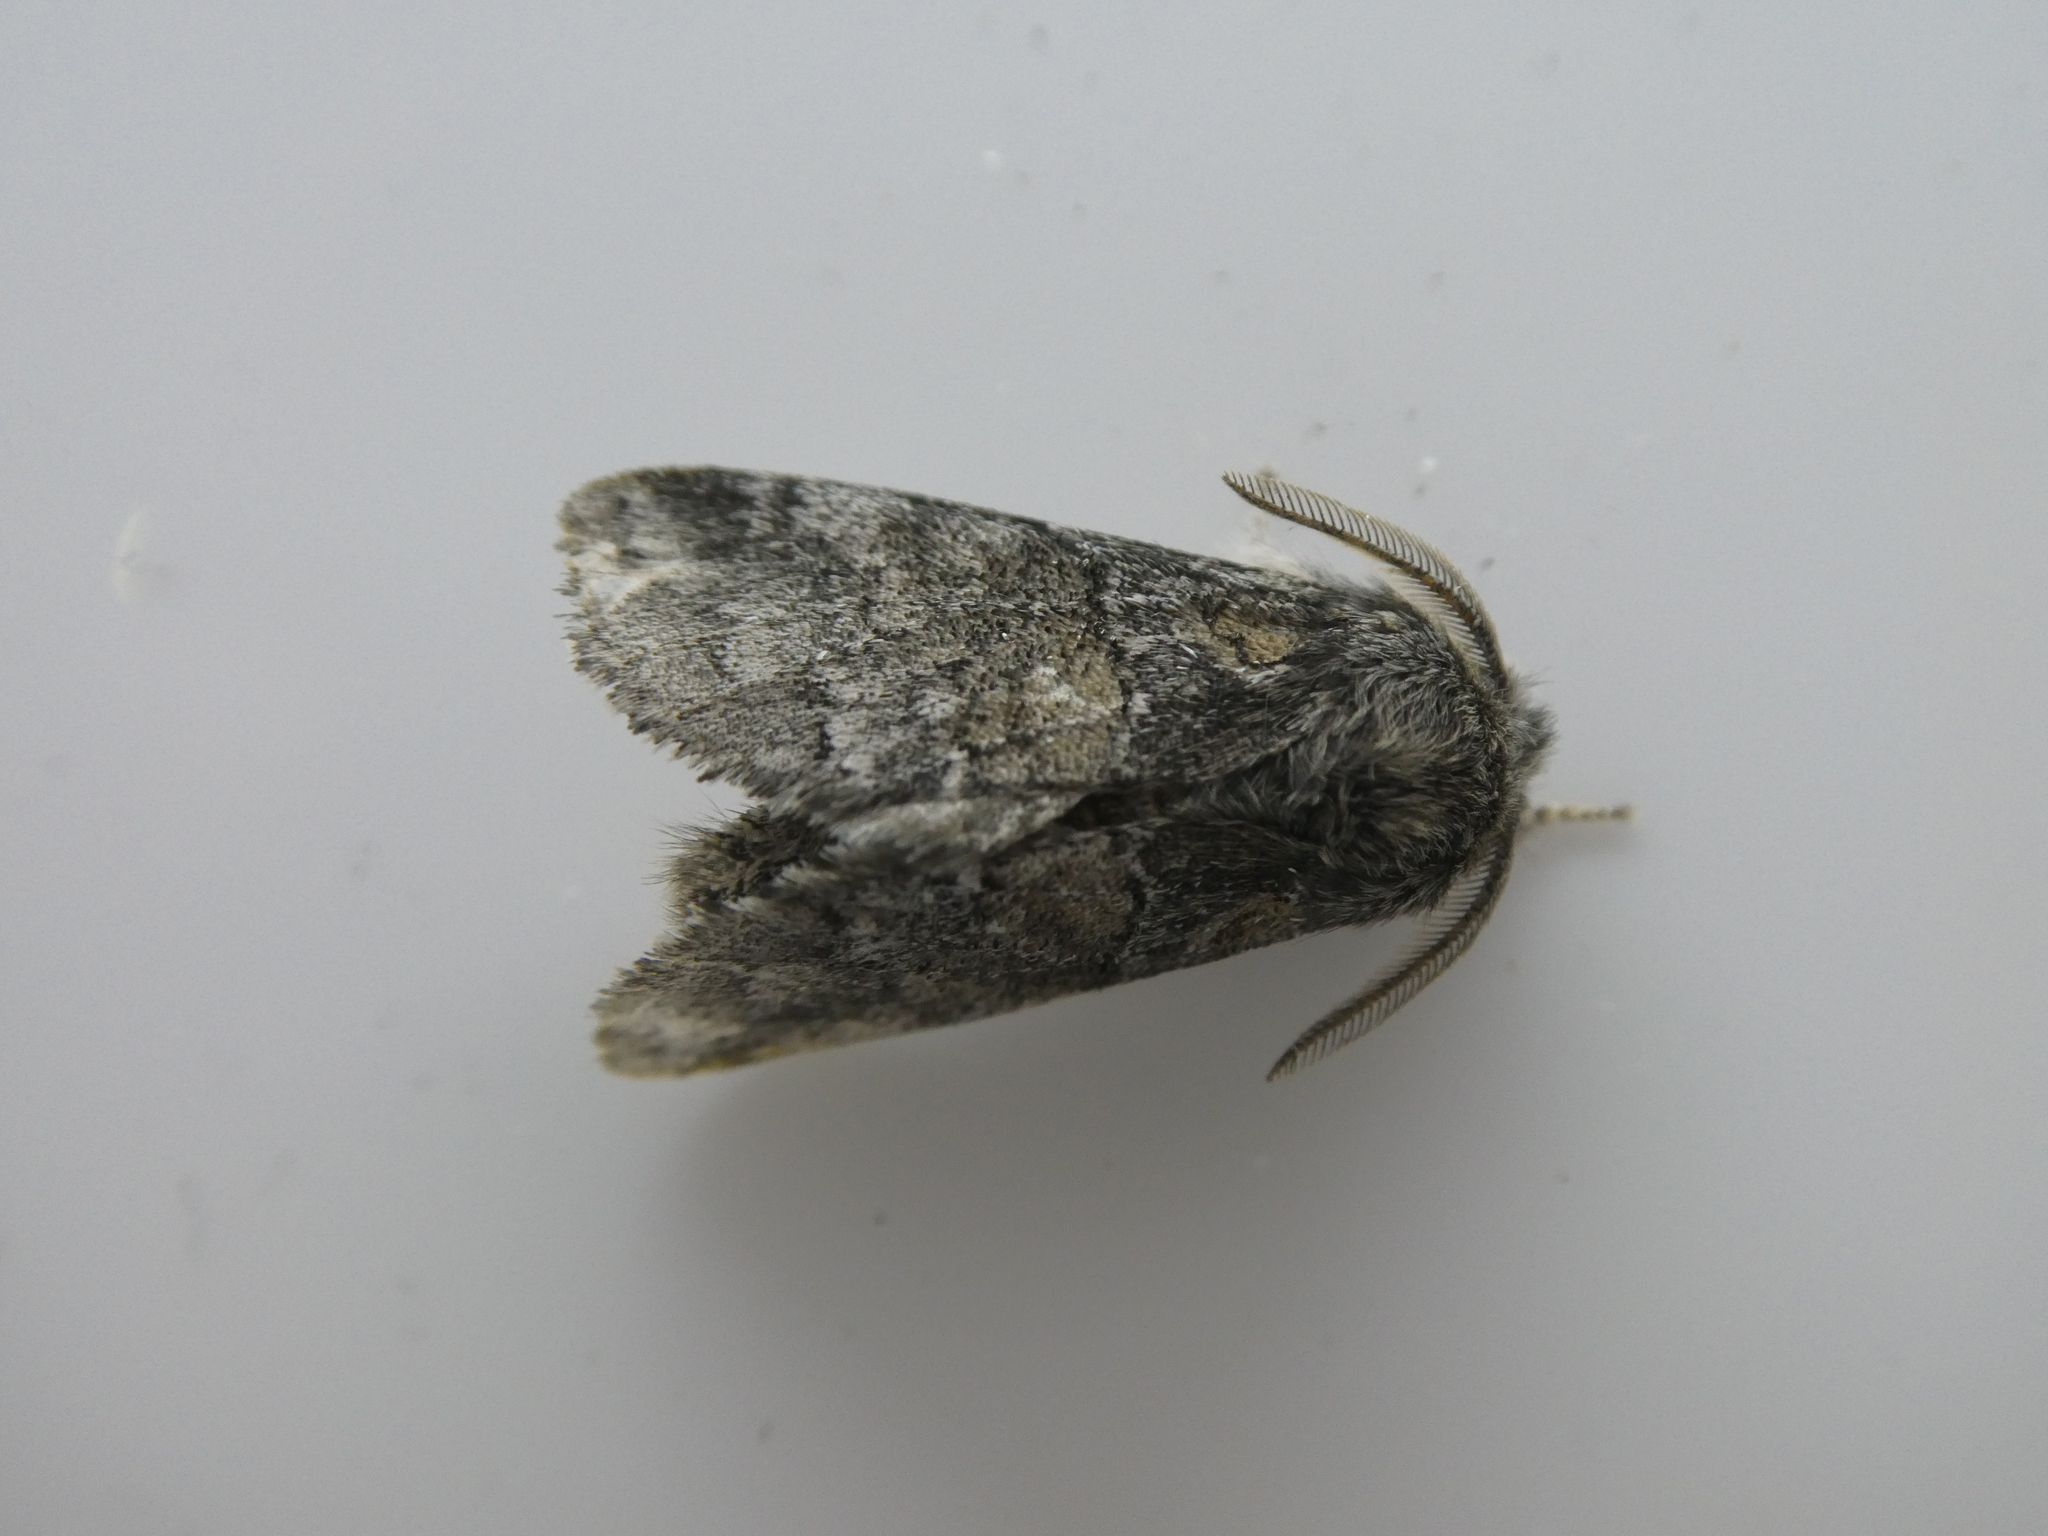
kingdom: Animalia
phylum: Arthropoda
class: Insecta
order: Lepidoptera
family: Notodontidae
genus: Gluphisia
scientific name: Gluphisia septentrionis
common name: Common gluphisia
